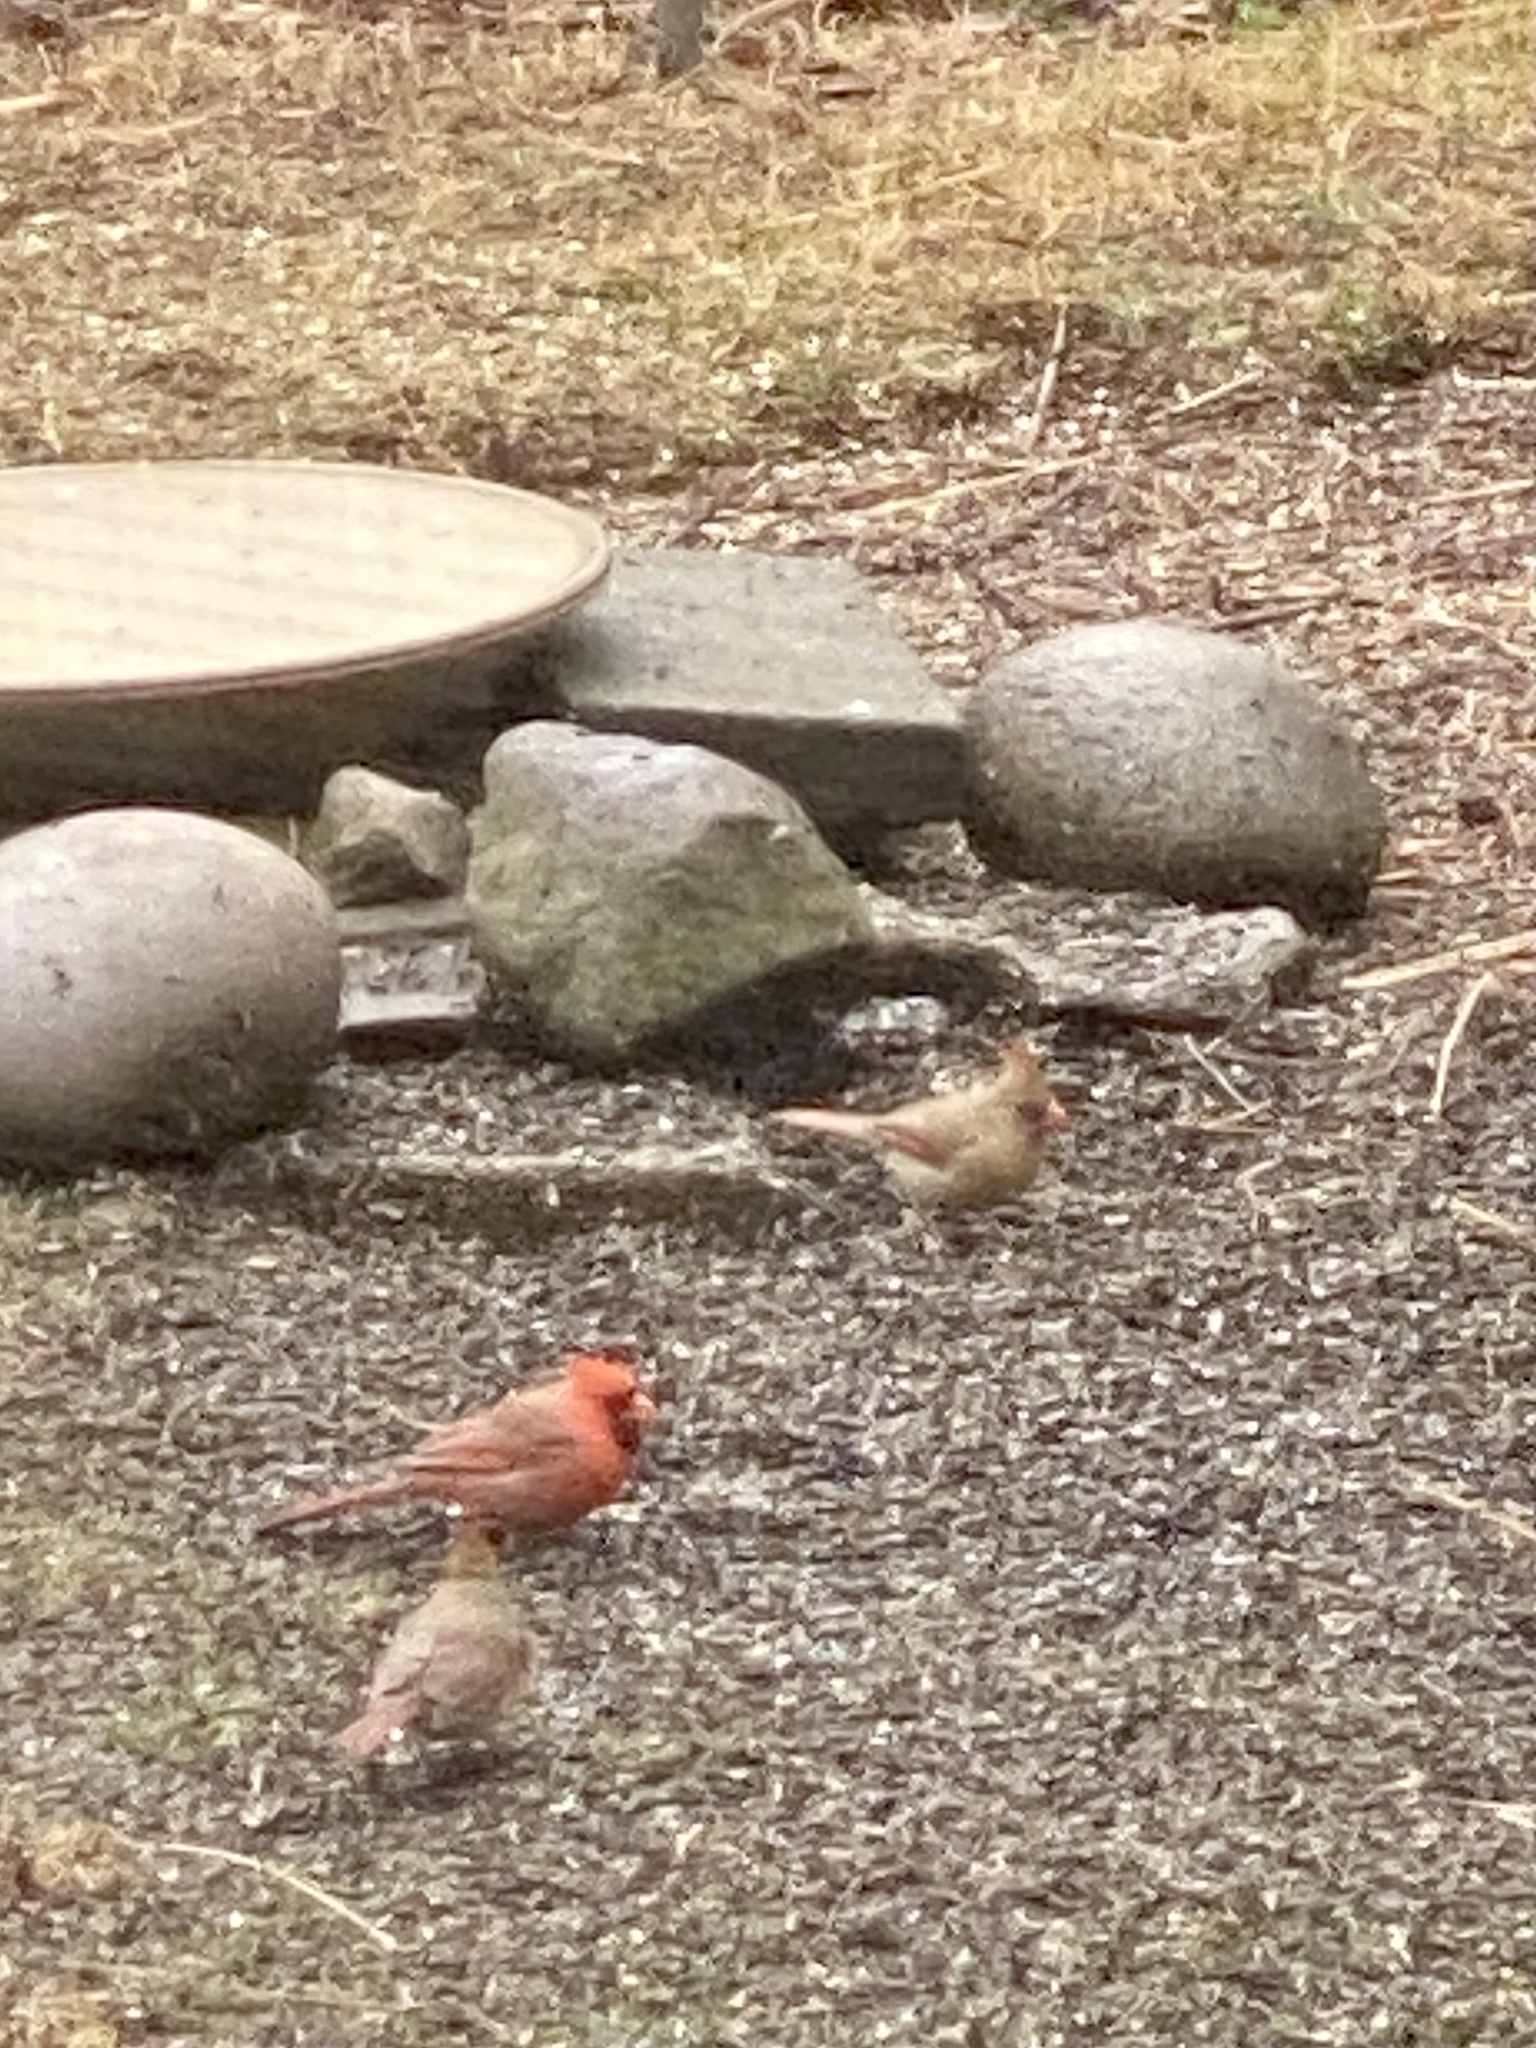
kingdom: Animalia
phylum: Chordata
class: Aves
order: Passeriformes
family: Cardinalidae
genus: Cardinalis
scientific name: Cardinalis cardinalis
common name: Northern cardinal
